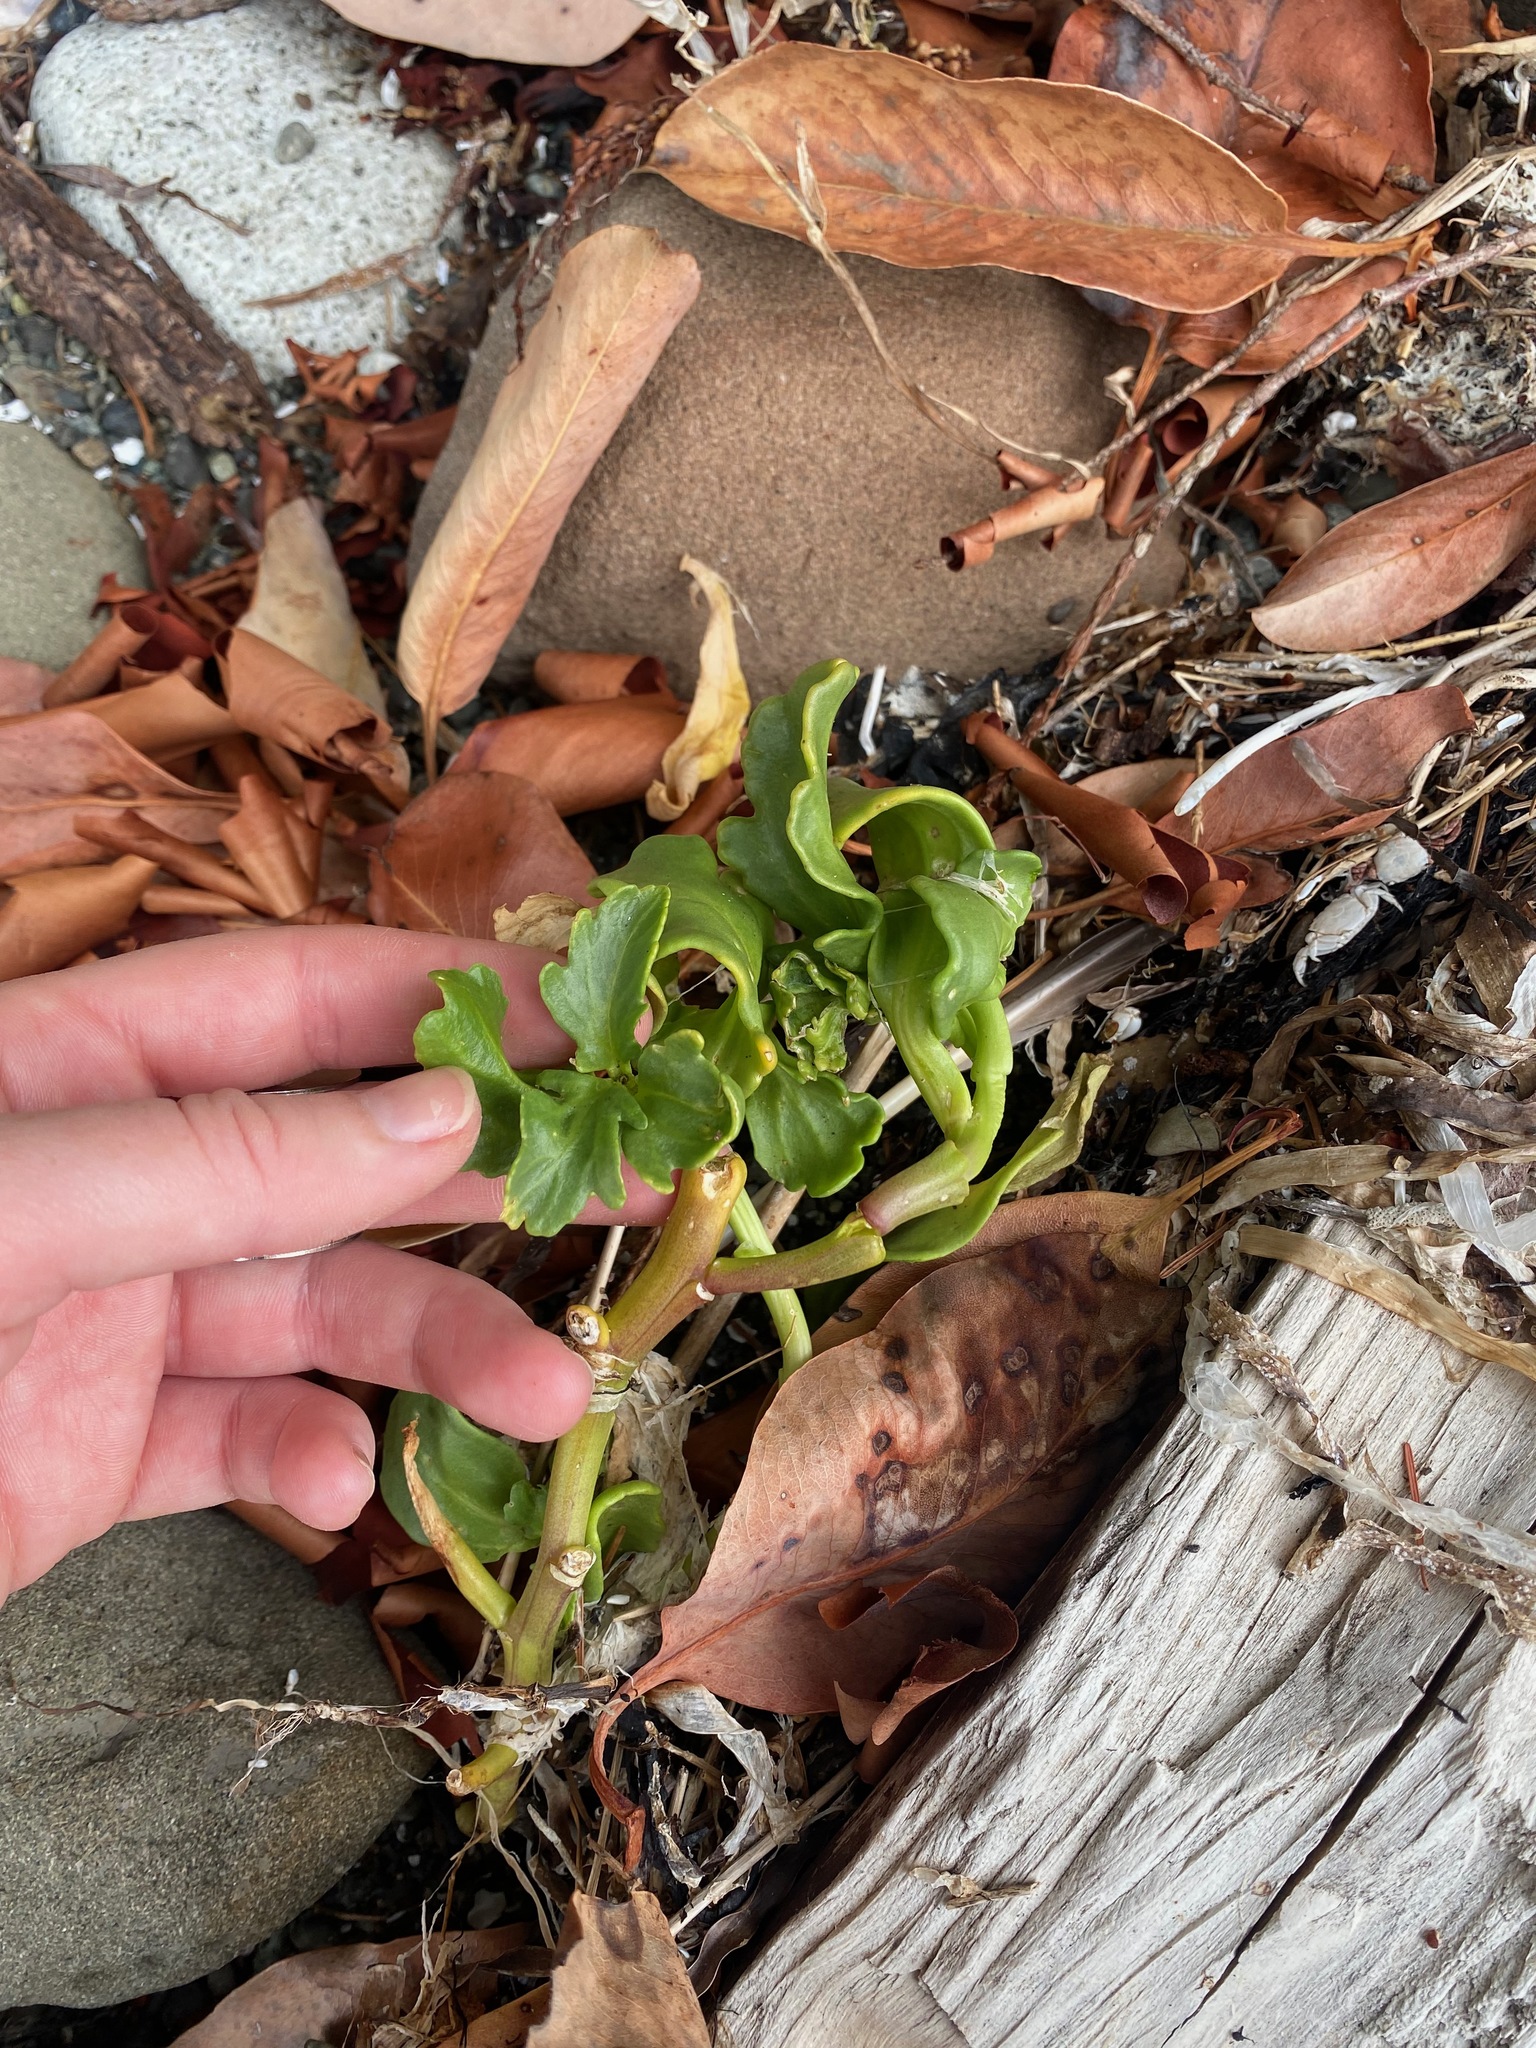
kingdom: Plantae
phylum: Tracheophyta
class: Magnoliopsida
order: Brassicales
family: Brassicaceae
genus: Cakile
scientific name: Cakile edentula
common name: American sea rocket
